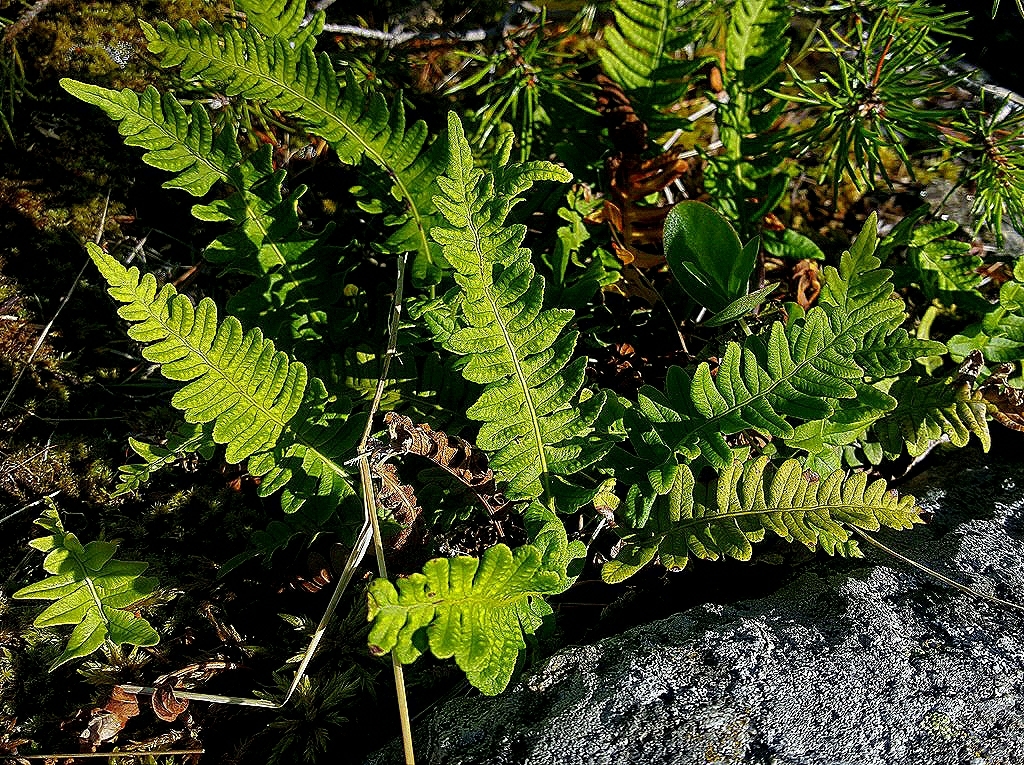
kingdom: Plantae
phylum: Tracheophyta
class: Polypodiopsida
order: Polypodiales
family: Polypodiaceae
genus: Polypodium
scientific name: Polypodium vulgare
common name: Common polypody
